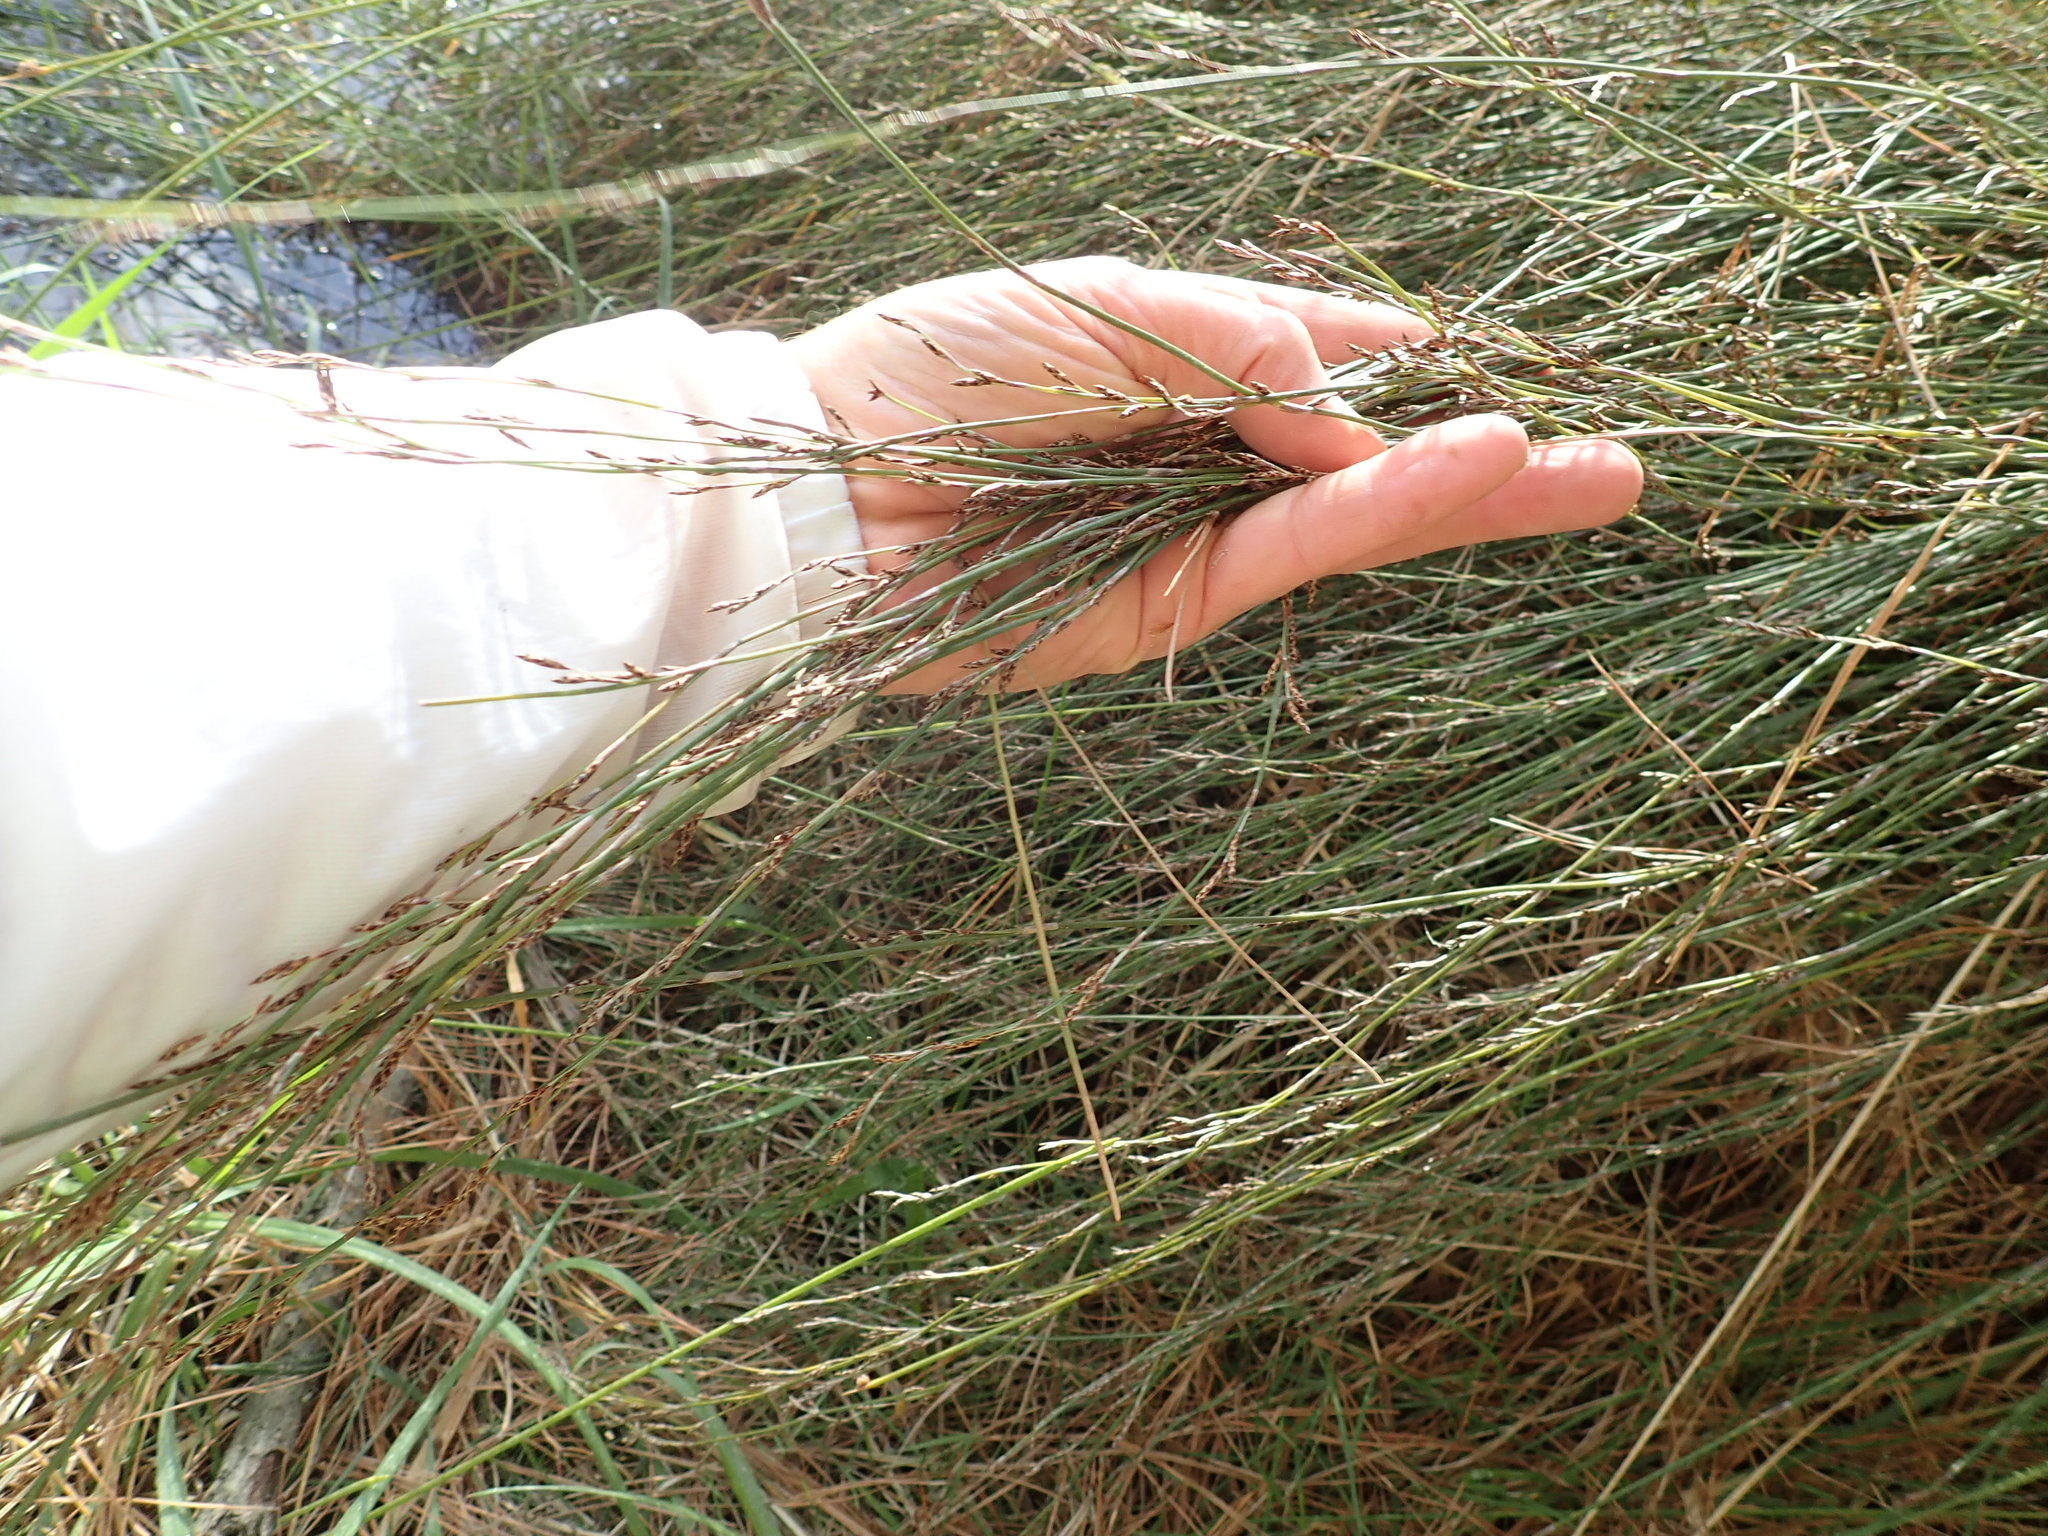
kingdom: Plantae
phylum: Tracheophyta
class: Liliopsida
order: Poales
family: Restionaceae
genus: Apodasmia
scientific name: Apodasmia similis
